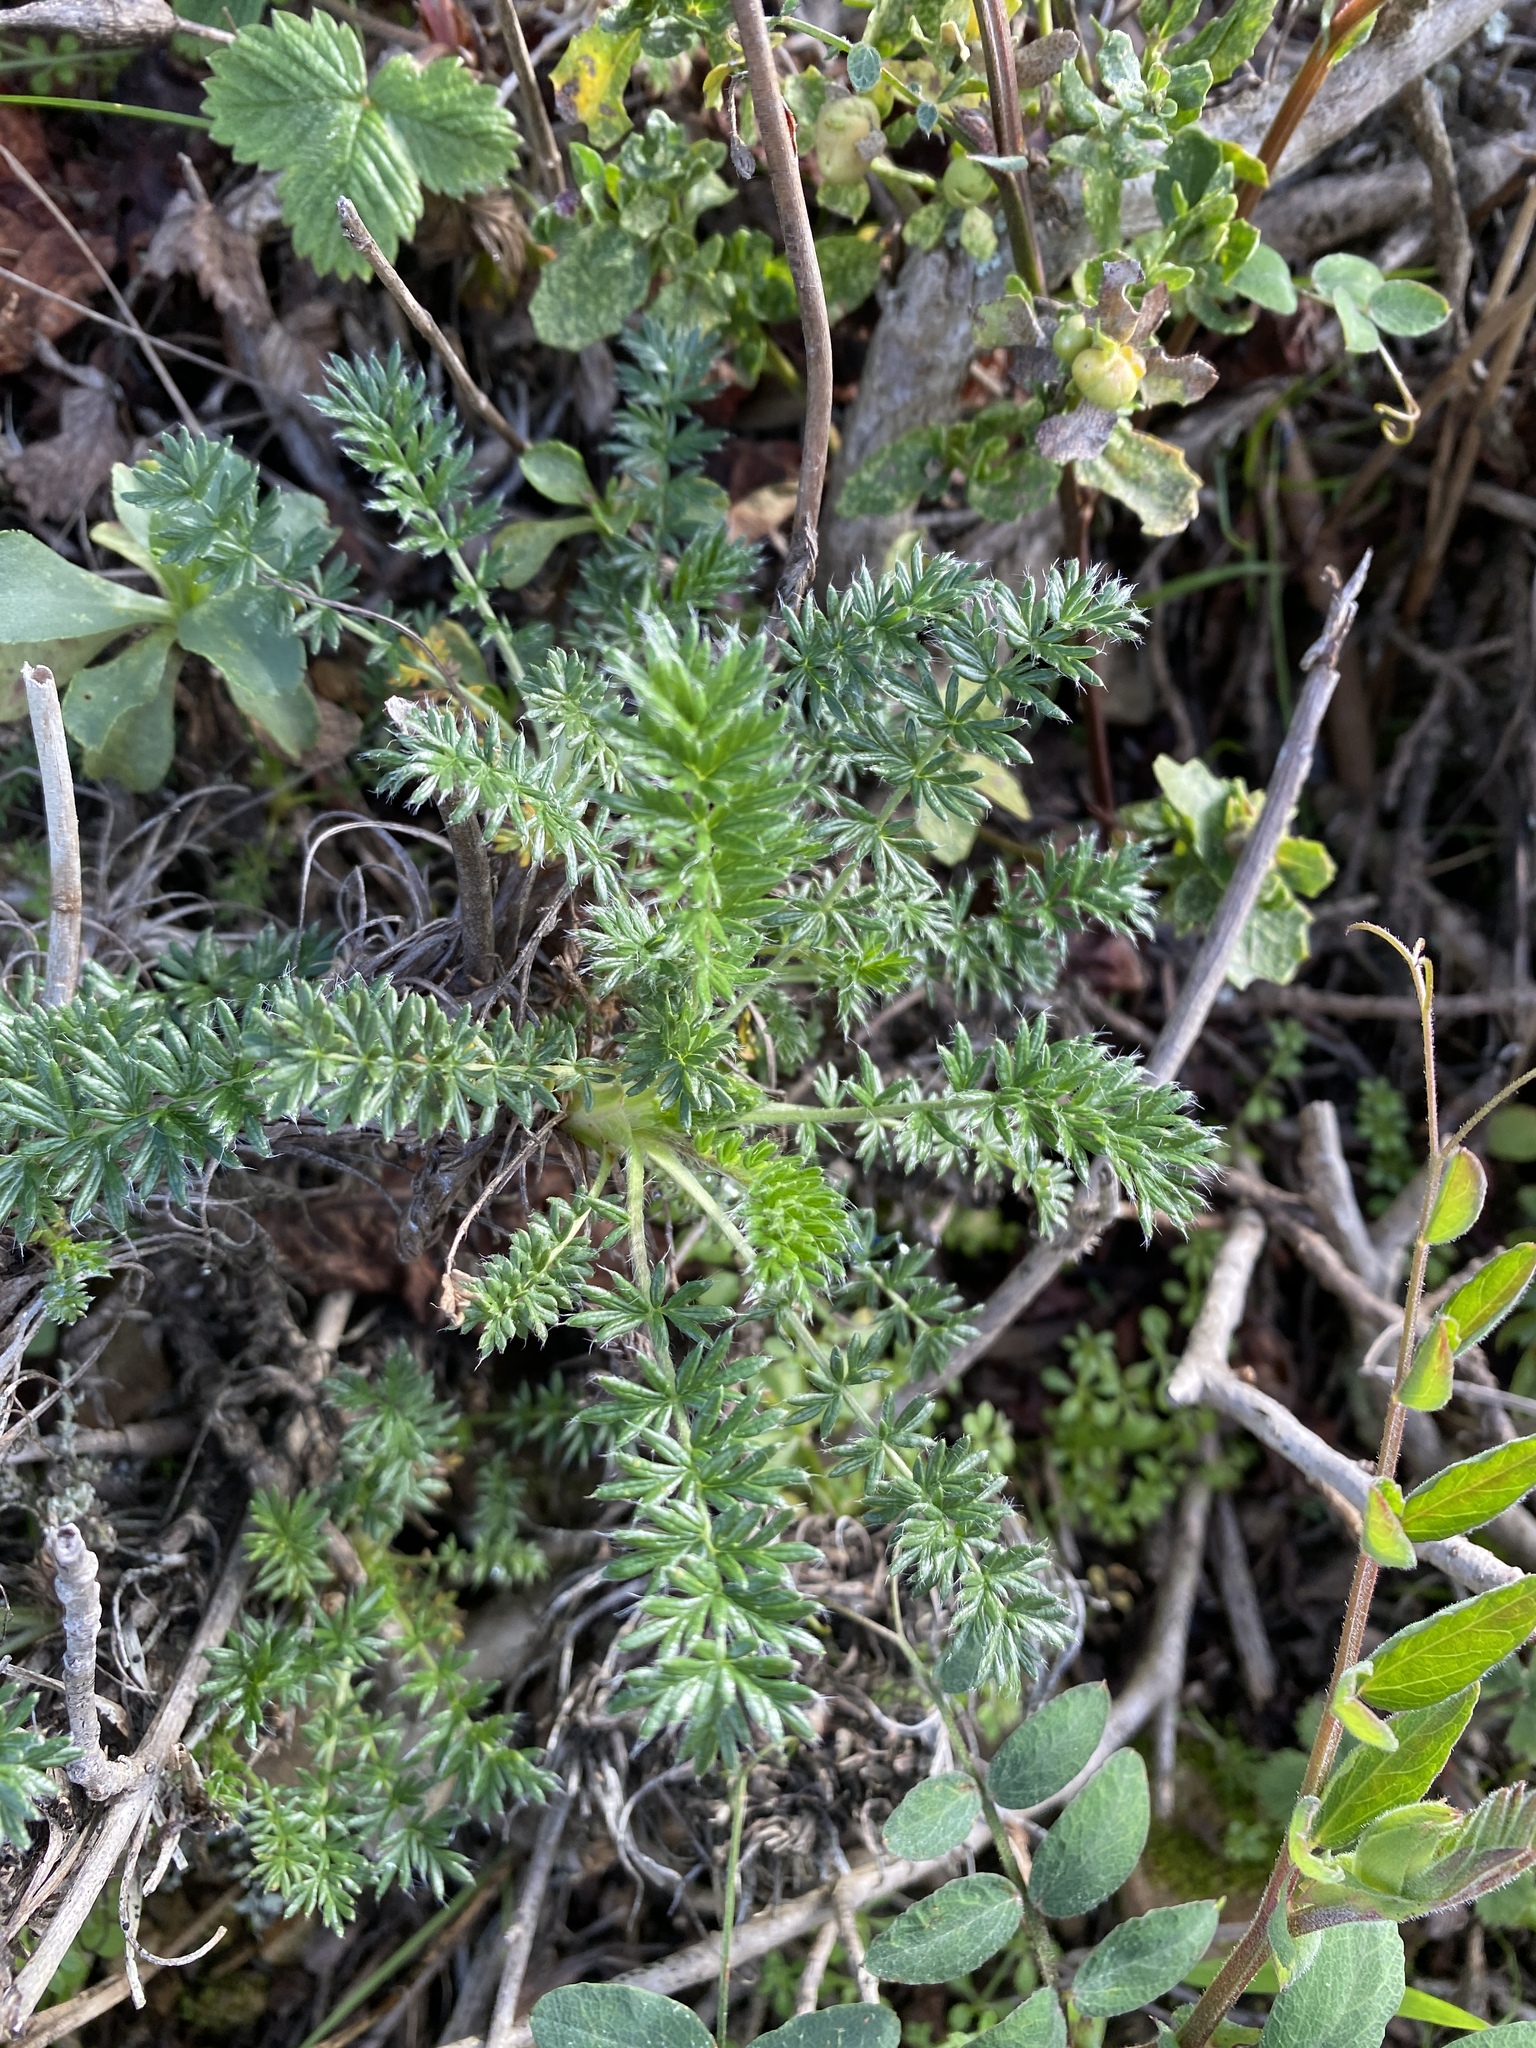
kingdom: Plantae
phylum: Tracheophyta
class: Magnoliopsida
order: Rosales
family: Rosaceae
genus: Acaena
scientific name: Acaena pinnatifida
